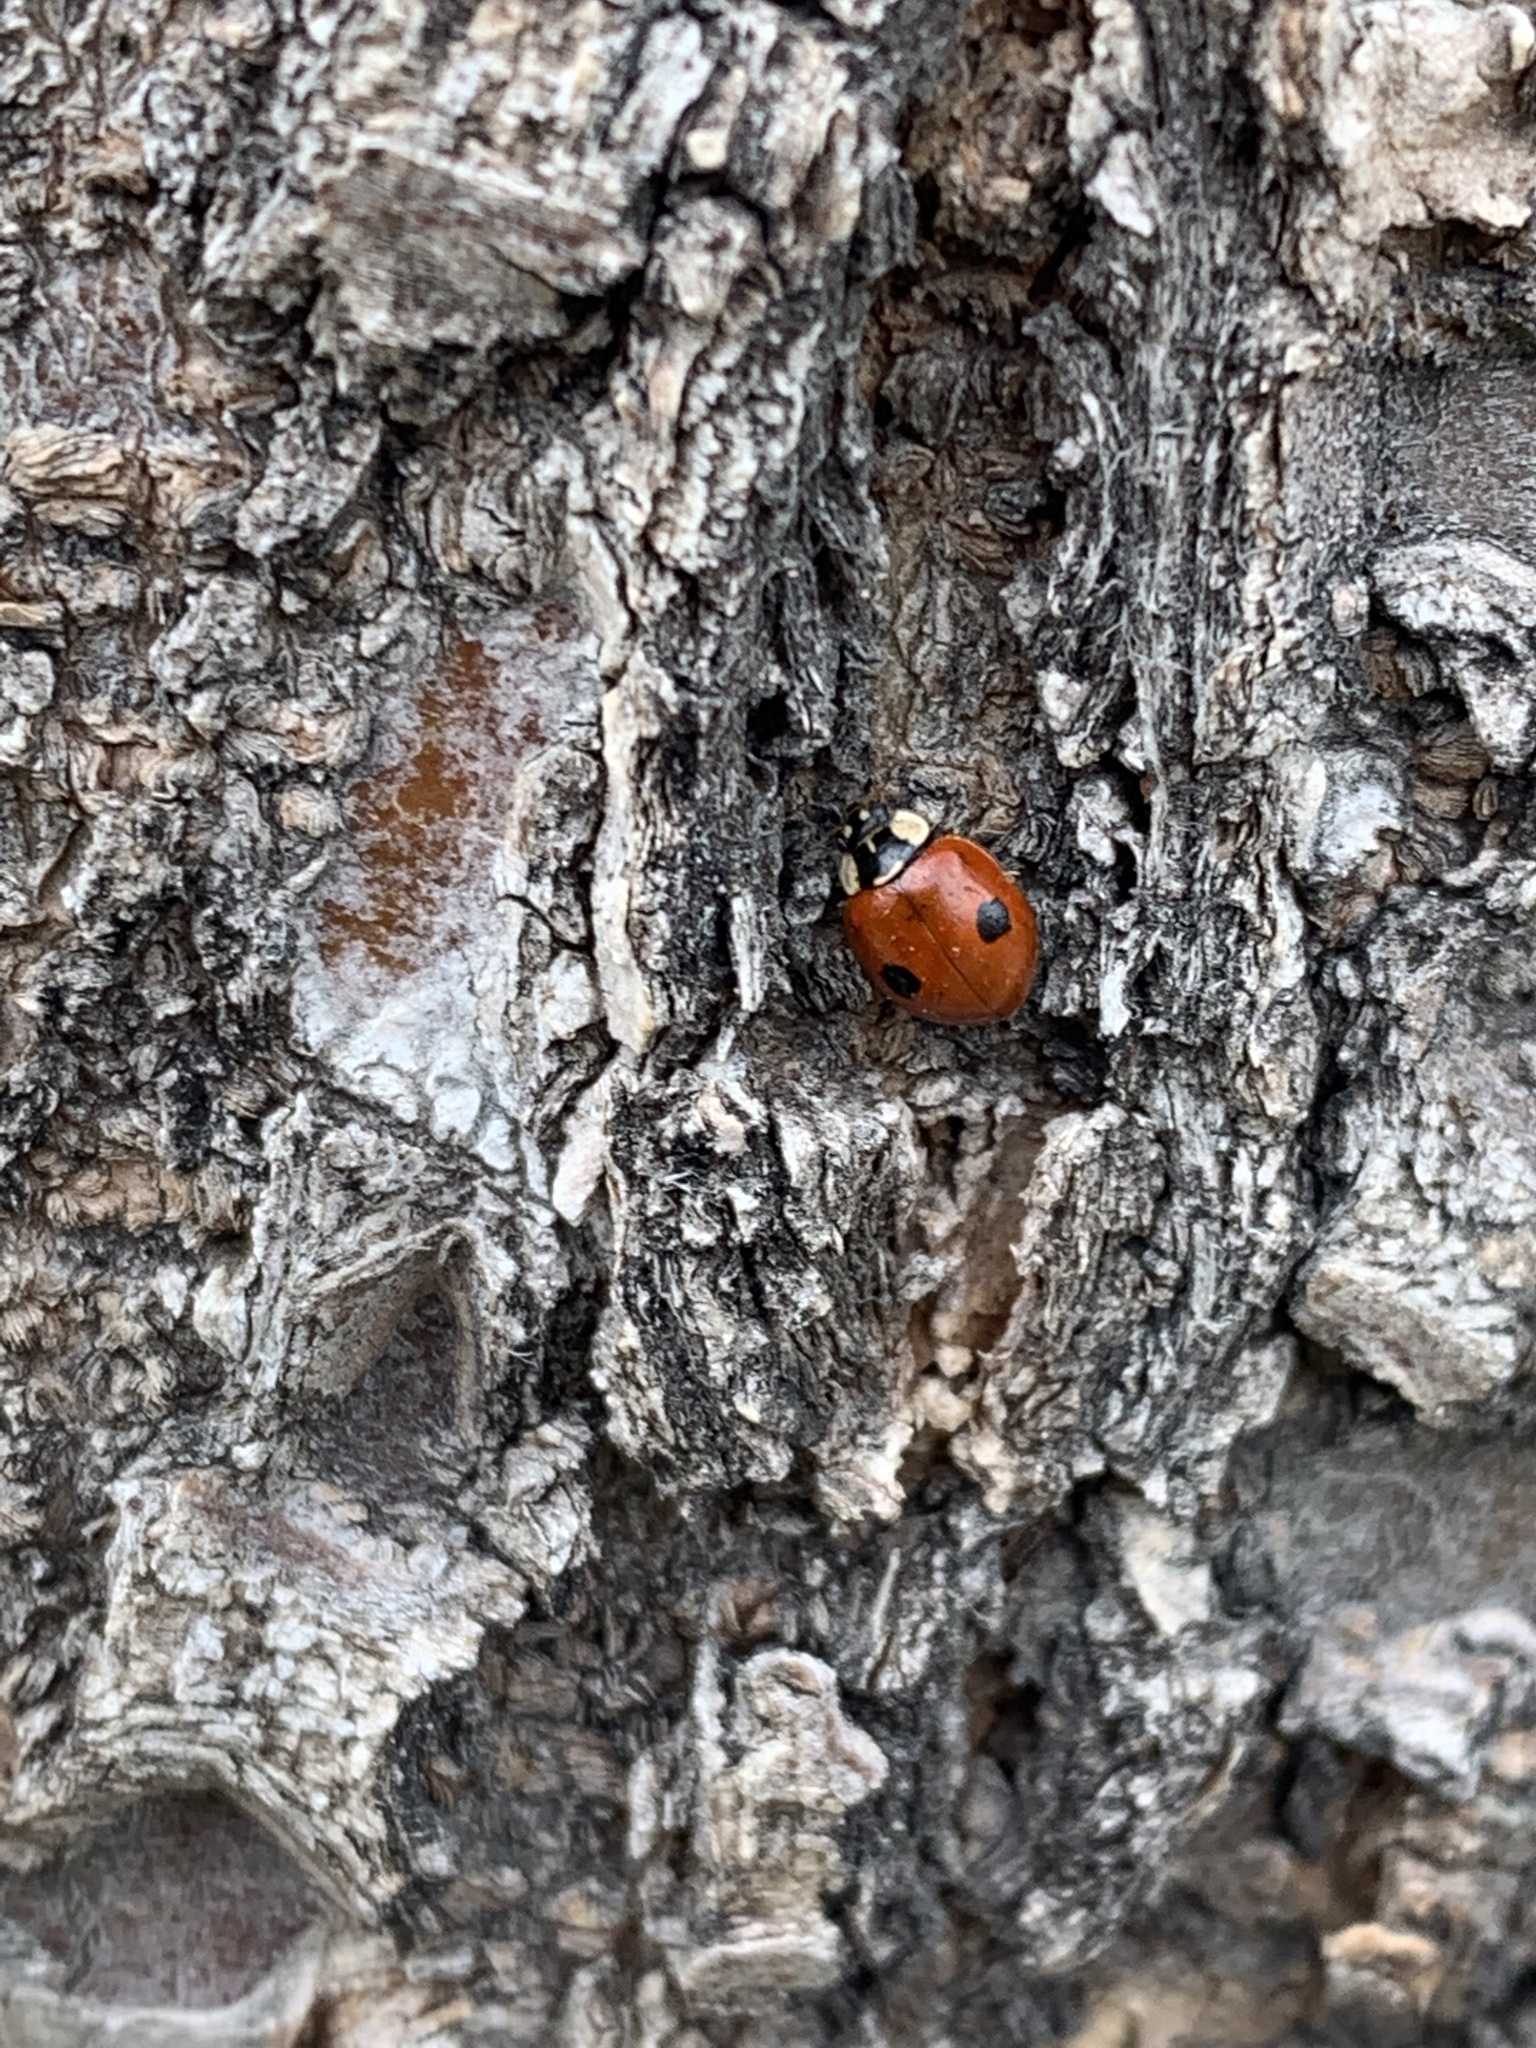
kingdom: Animalia
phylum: Arthropoda
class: Insecta
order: Coleoptera
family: Coccinellidae
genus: Adalia
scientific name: Adalia bipunctata
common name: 2-spot ladybird
